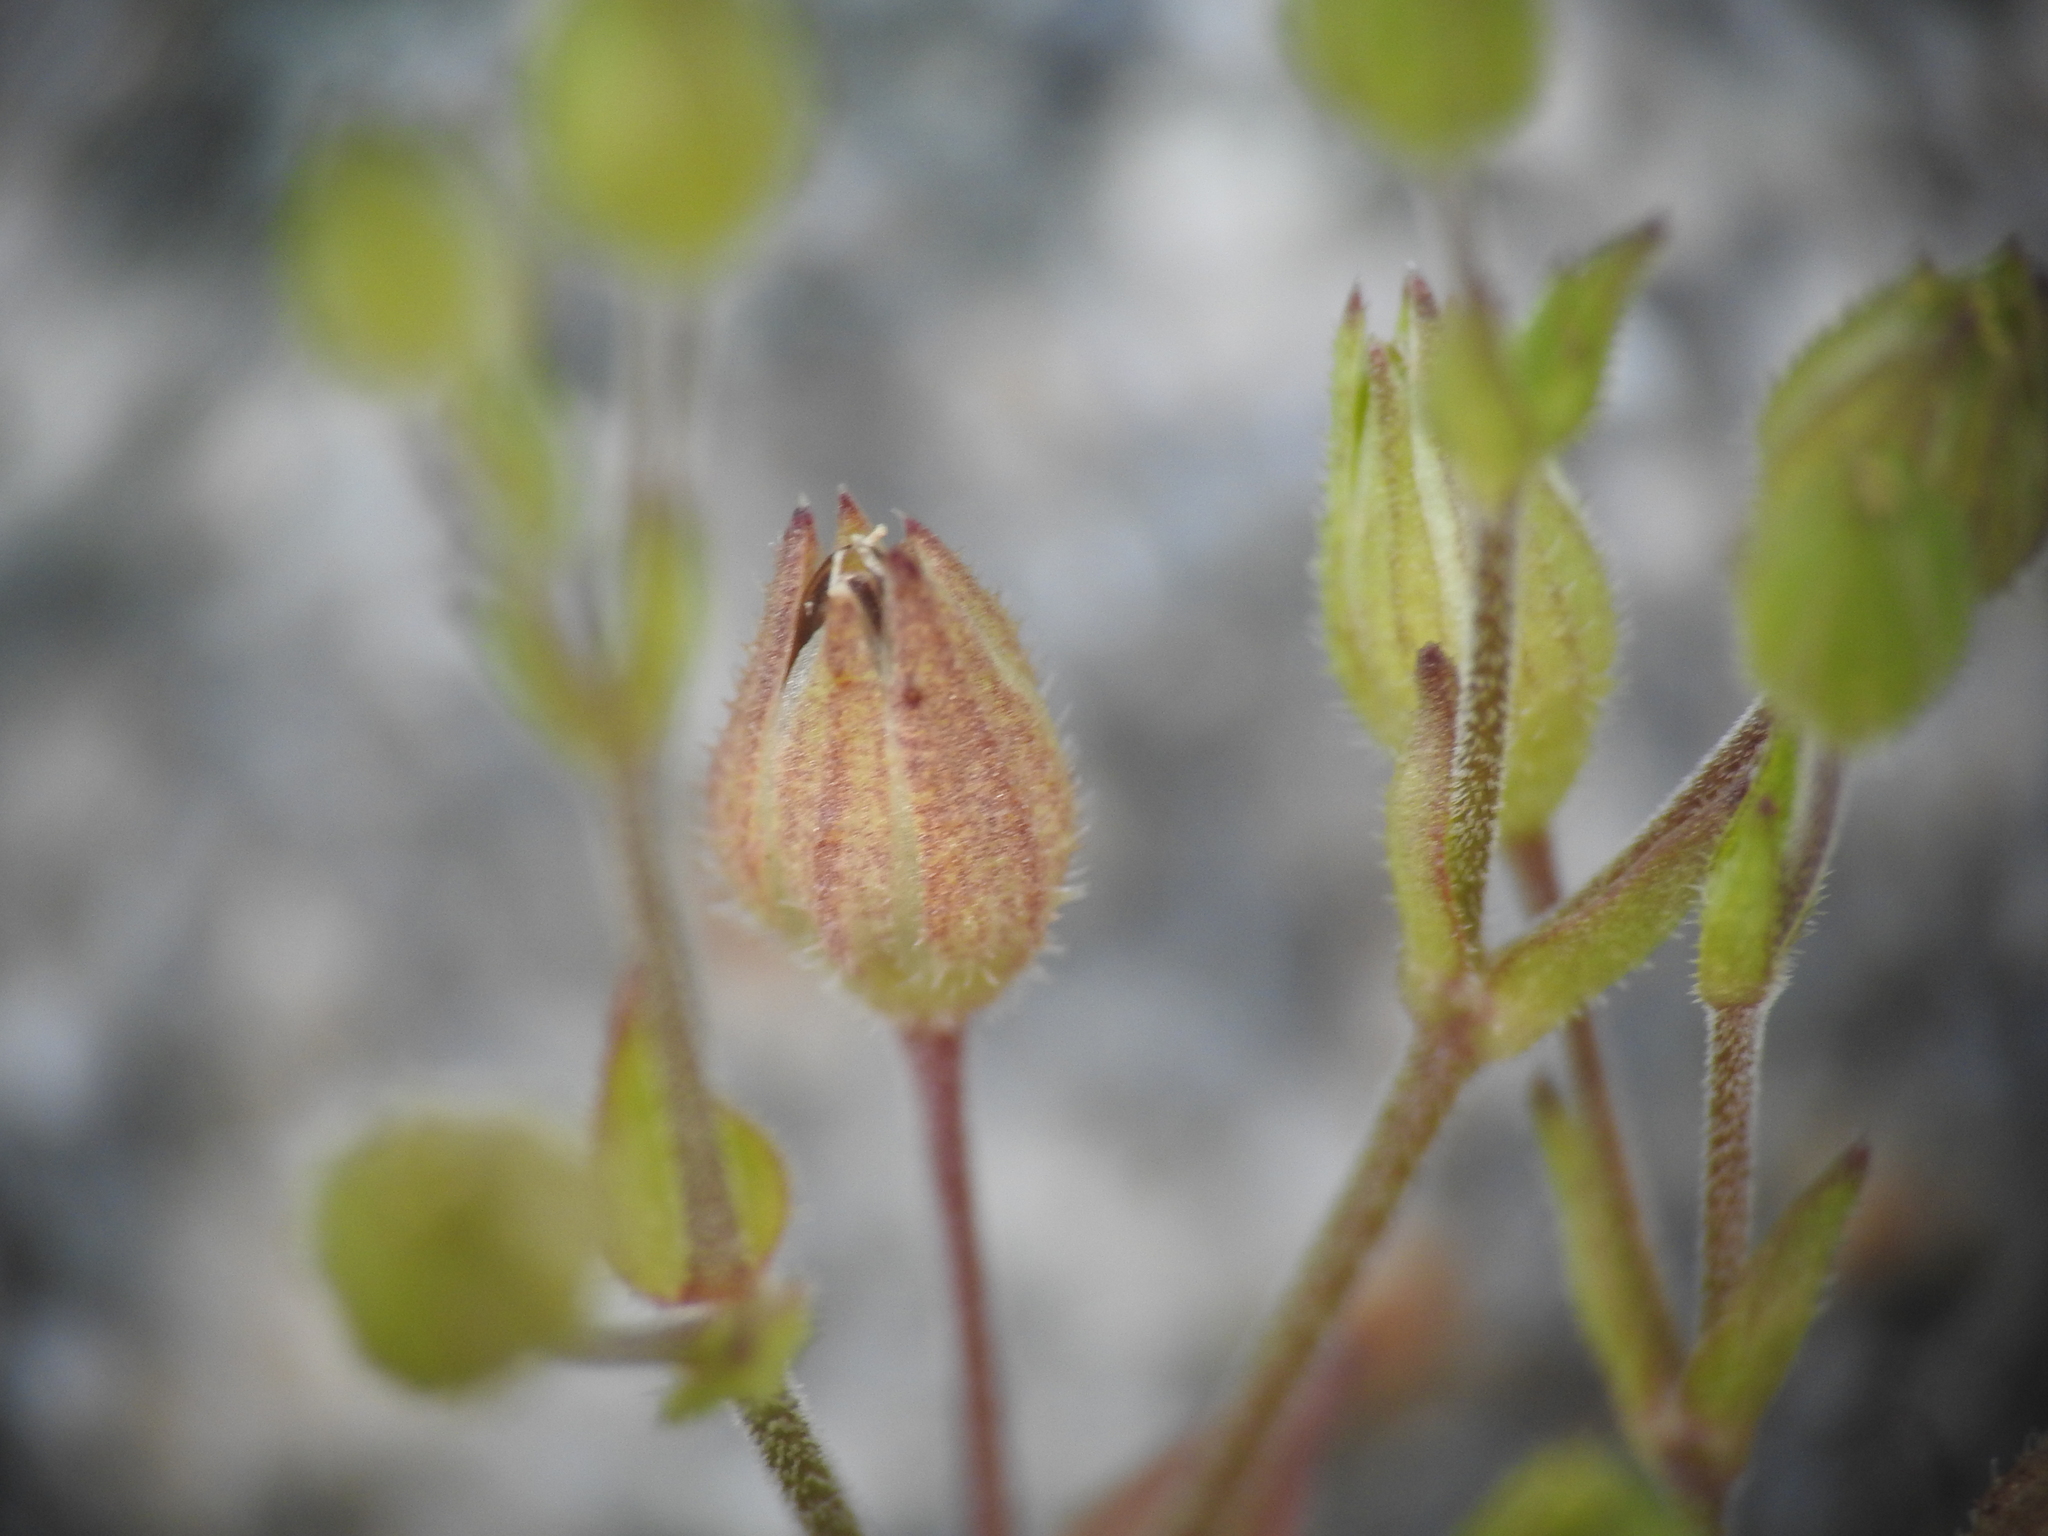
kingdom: Plantae
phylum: Tracheophyta
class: Magnoliopsida
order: Caryophyllales
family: Caryophyllaceae
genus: Arenaria
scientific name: Arenaria serpyllifolia
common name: Thyme-leaved sandwort
